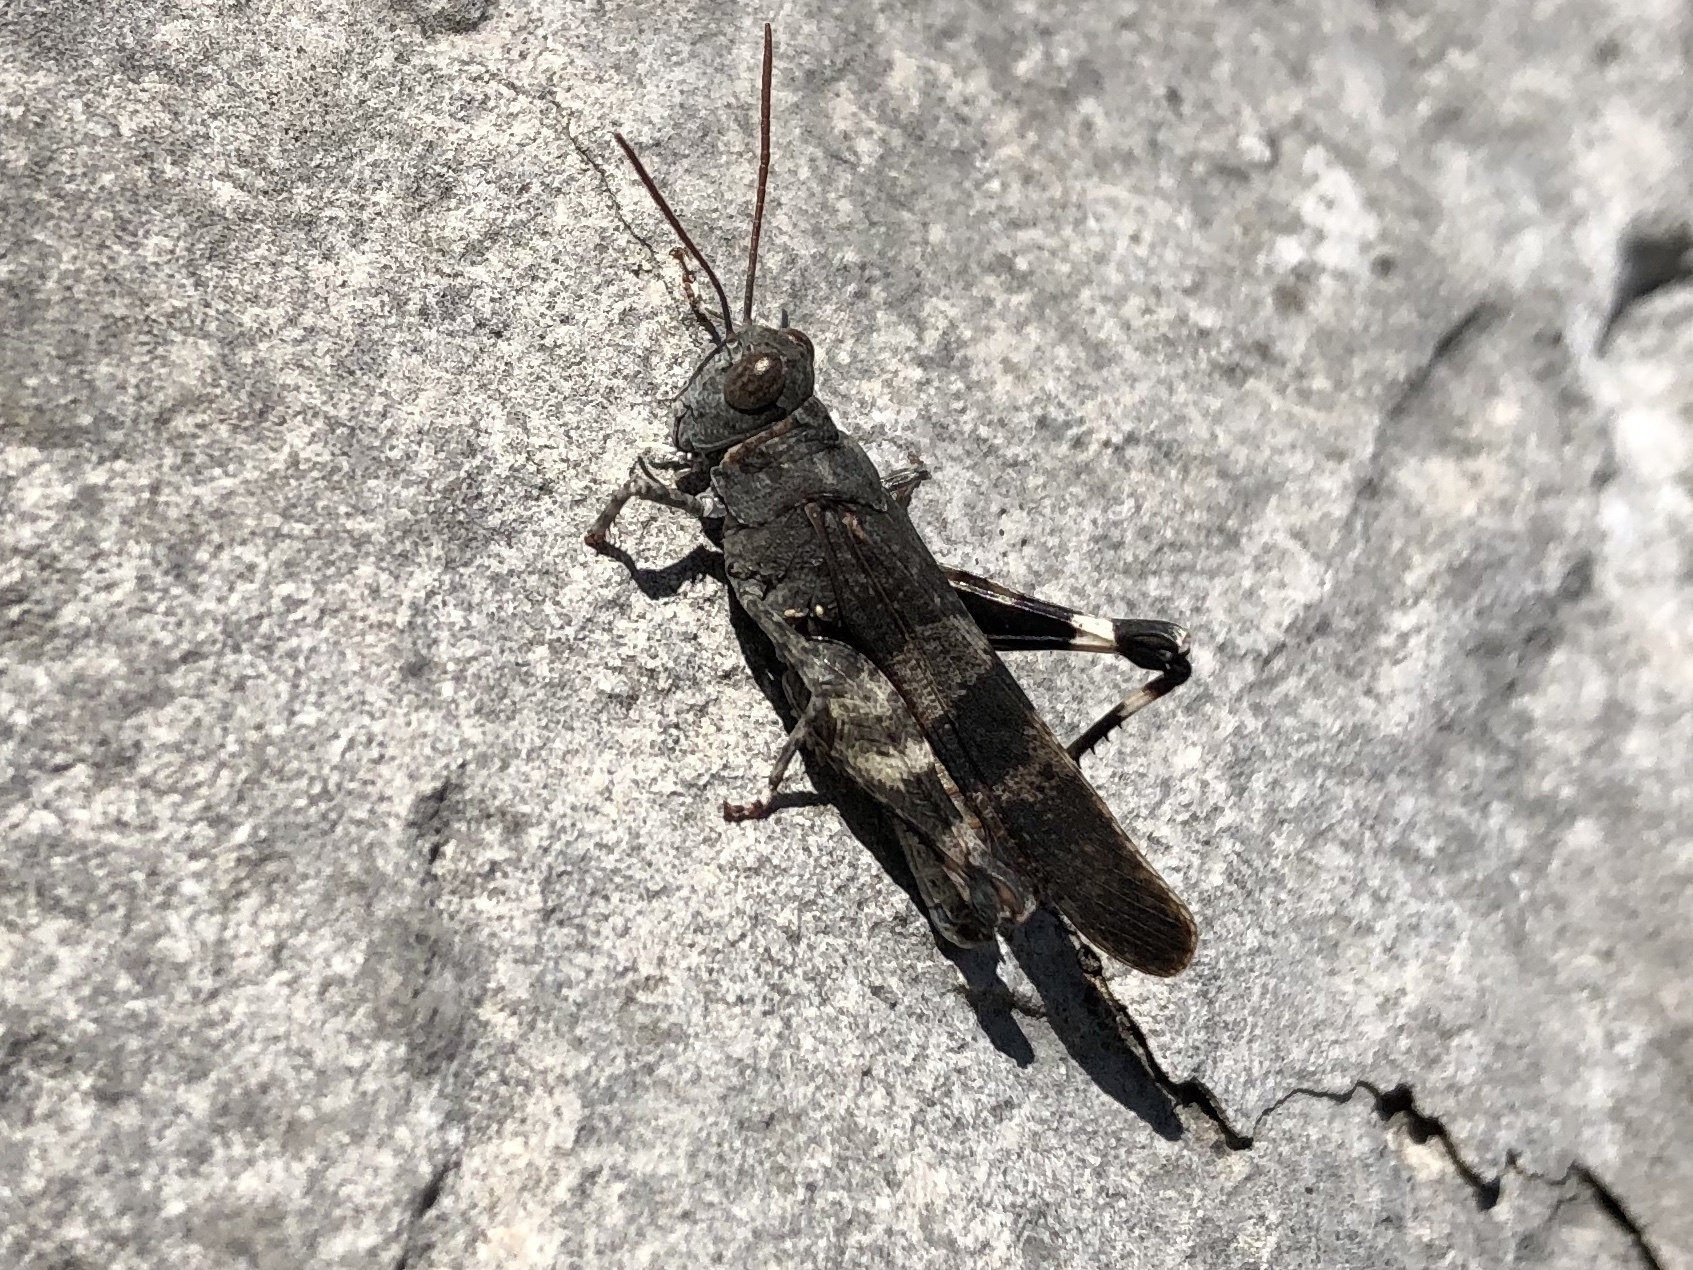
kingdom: Animalia
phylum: Arthropoda
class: Insecta
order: Orthoptera
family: Acrididae
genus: Oedipoda
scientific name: Oedipoda germanica
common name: Red band-winged grasshopper
